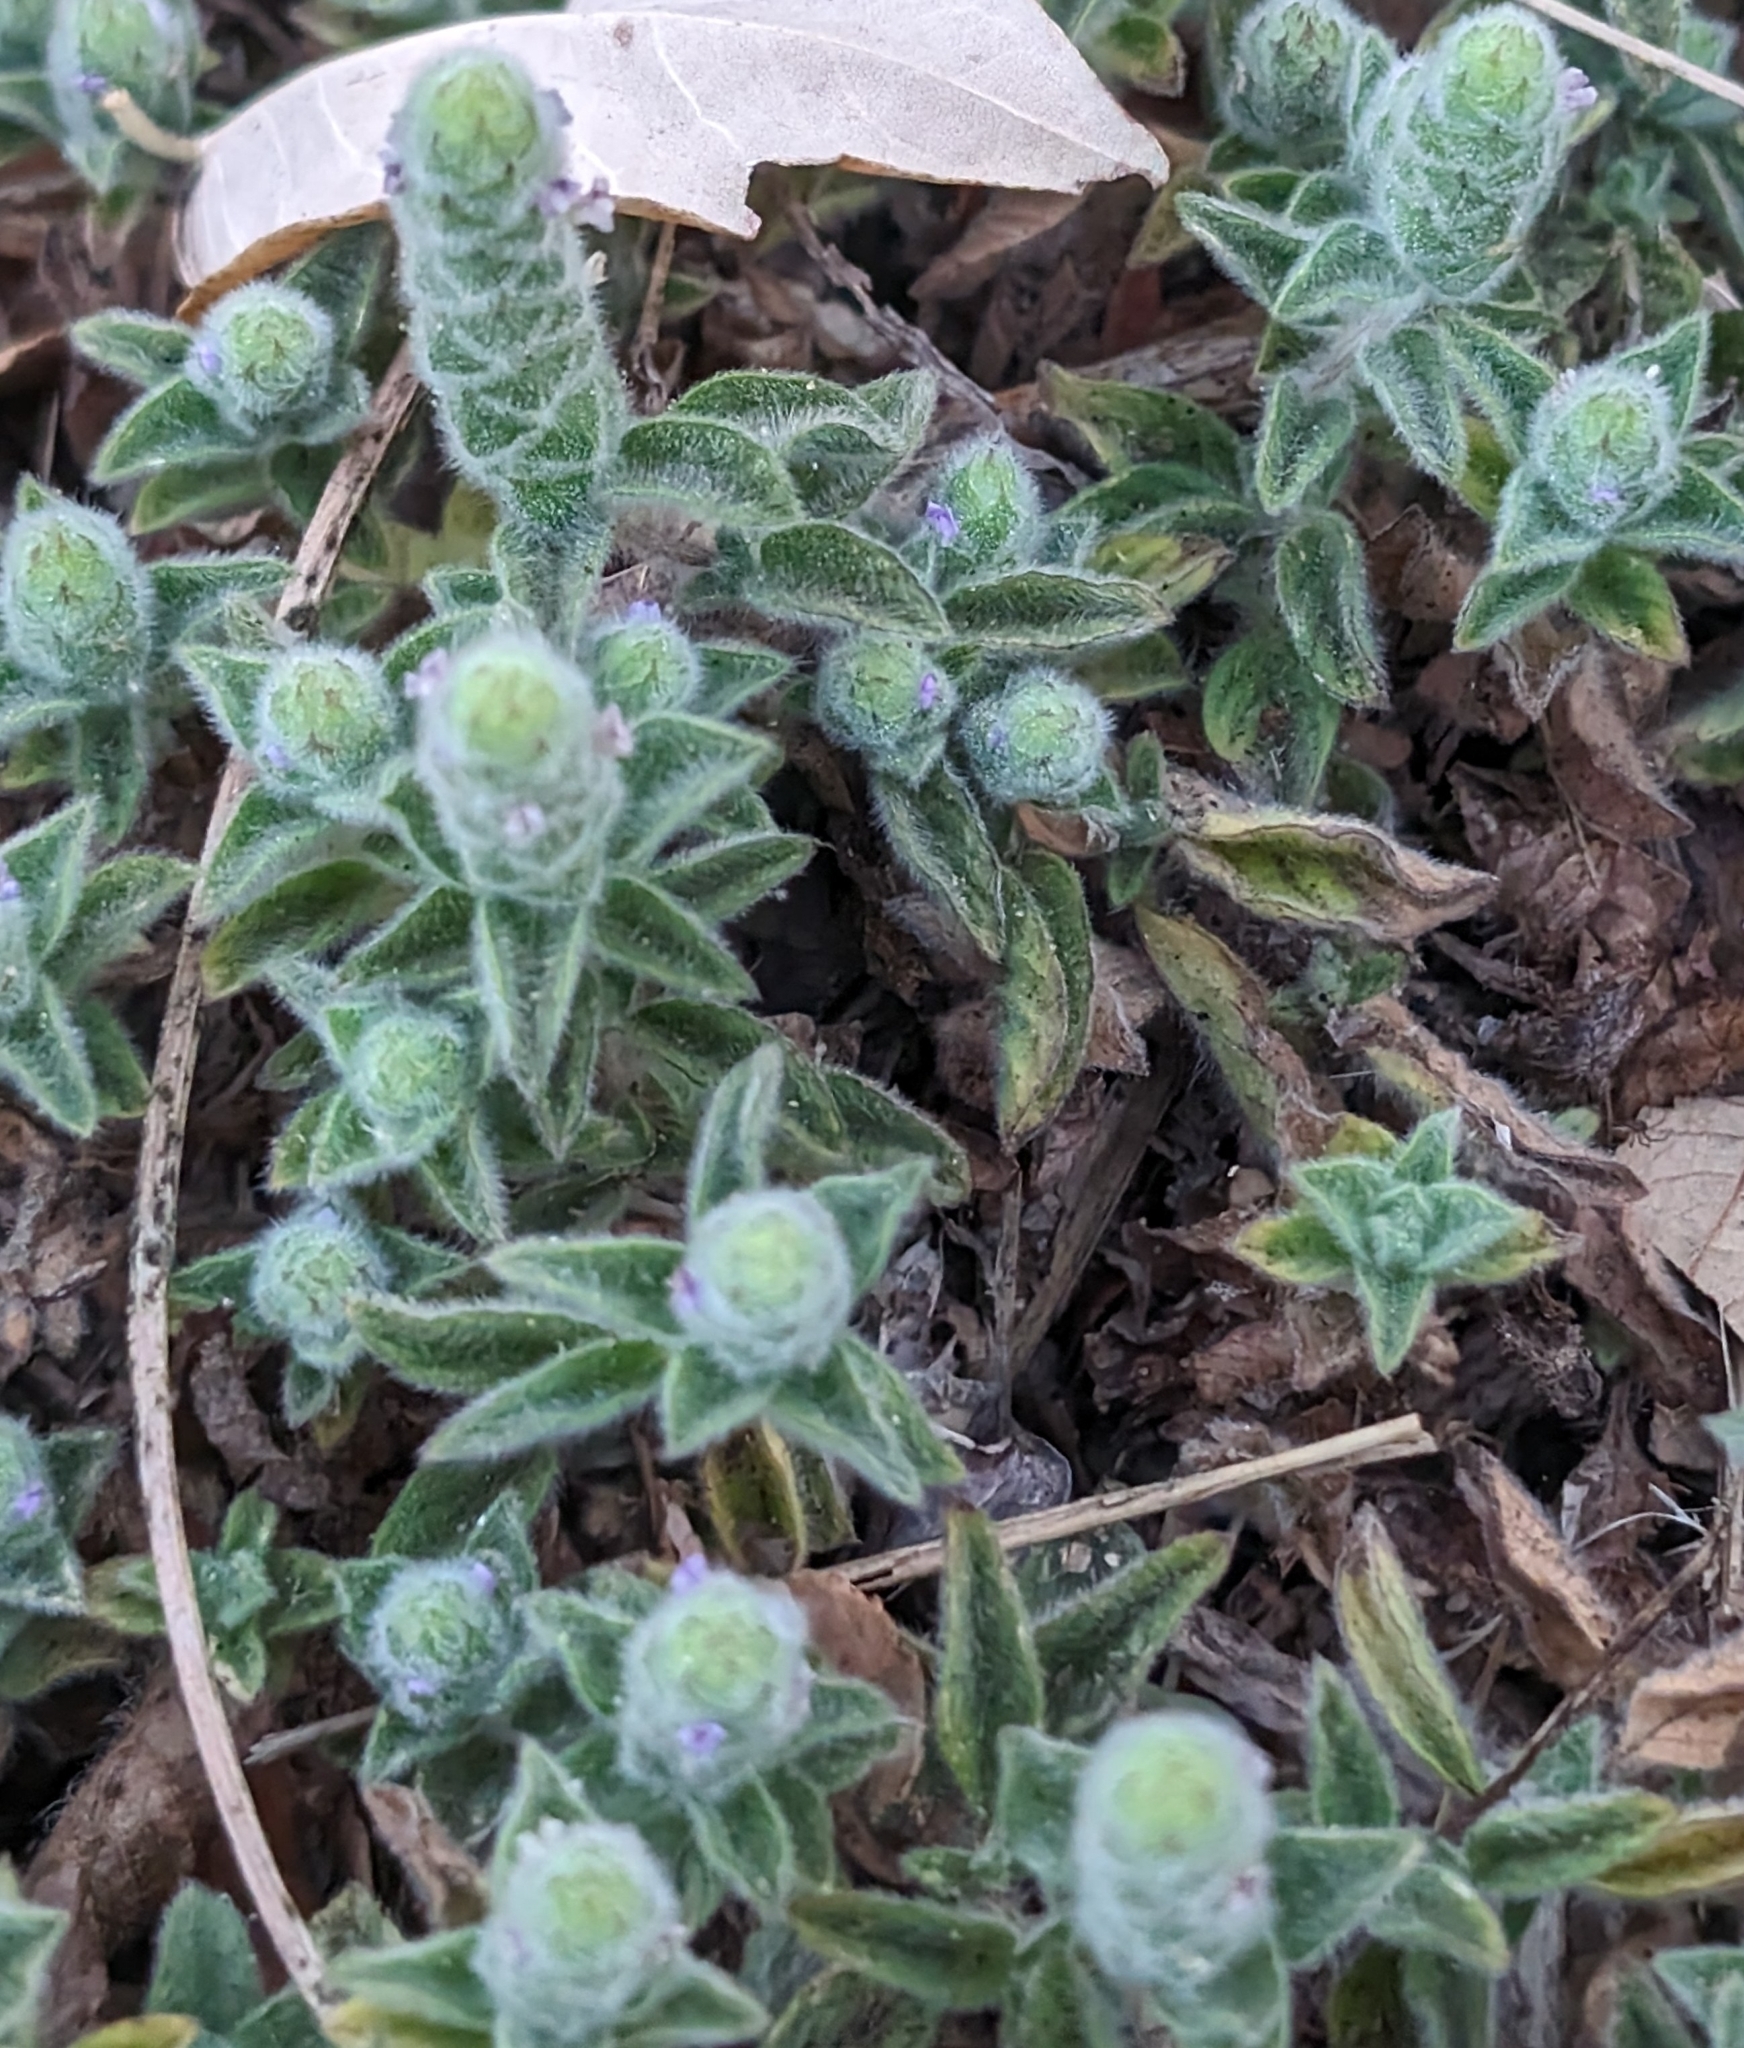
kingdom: Plantae
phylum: Tracheophyta
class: Magnoliopsida
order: Lamiales
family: Acanthaceae
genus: Nelsonia
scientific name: Nelsonia canescens
